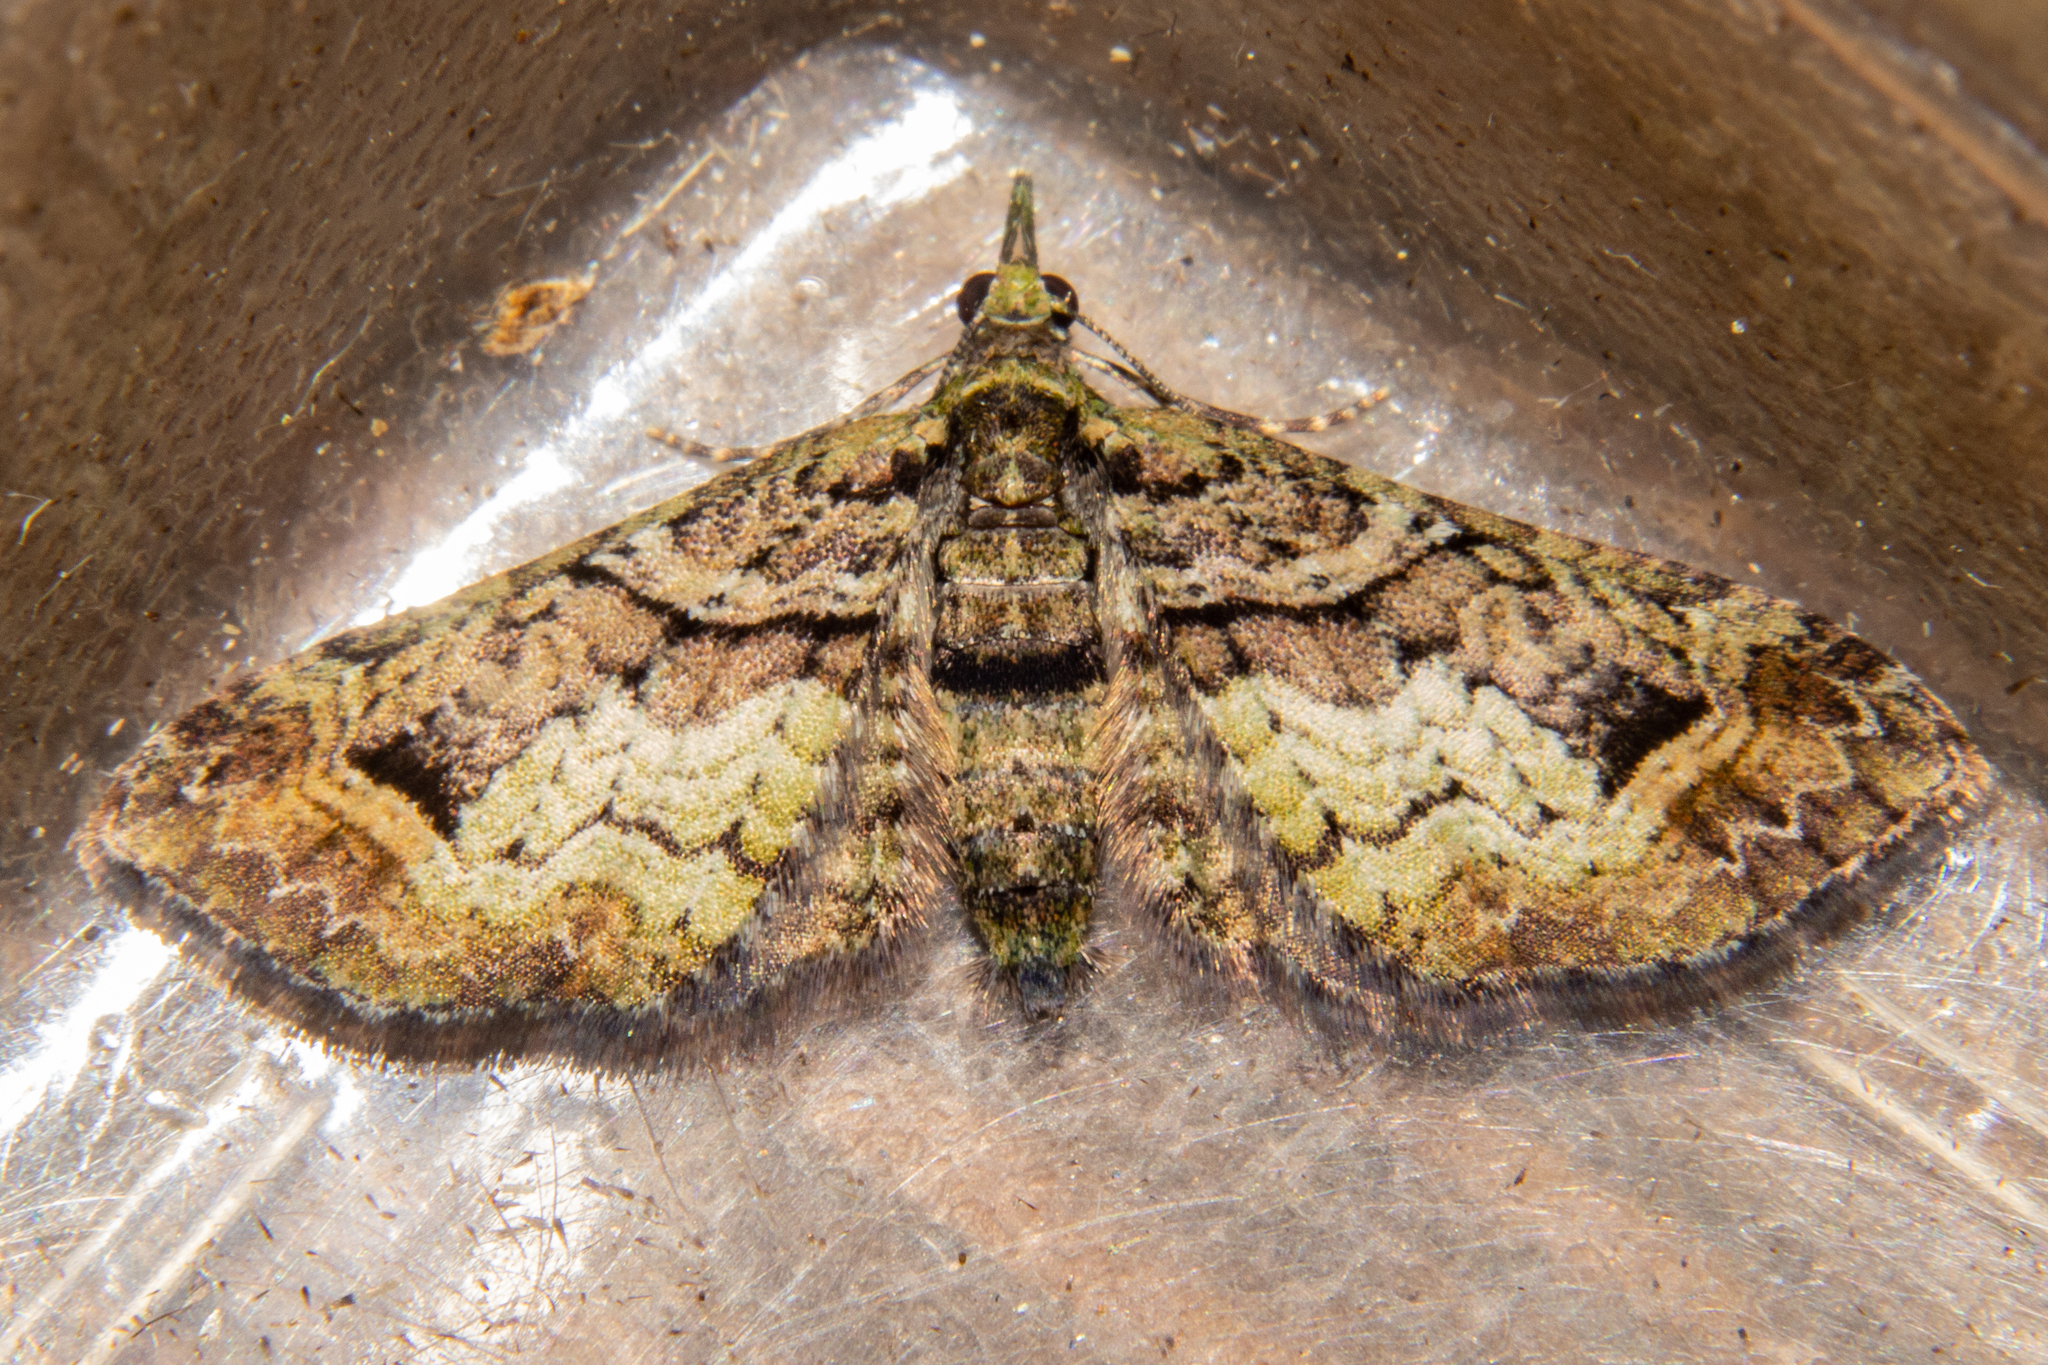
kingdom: Animalia
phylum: Arthropoda
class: Insecta
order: Lepidoptera
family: Geometridae
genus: Idaea
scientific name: Idaea mutanda
